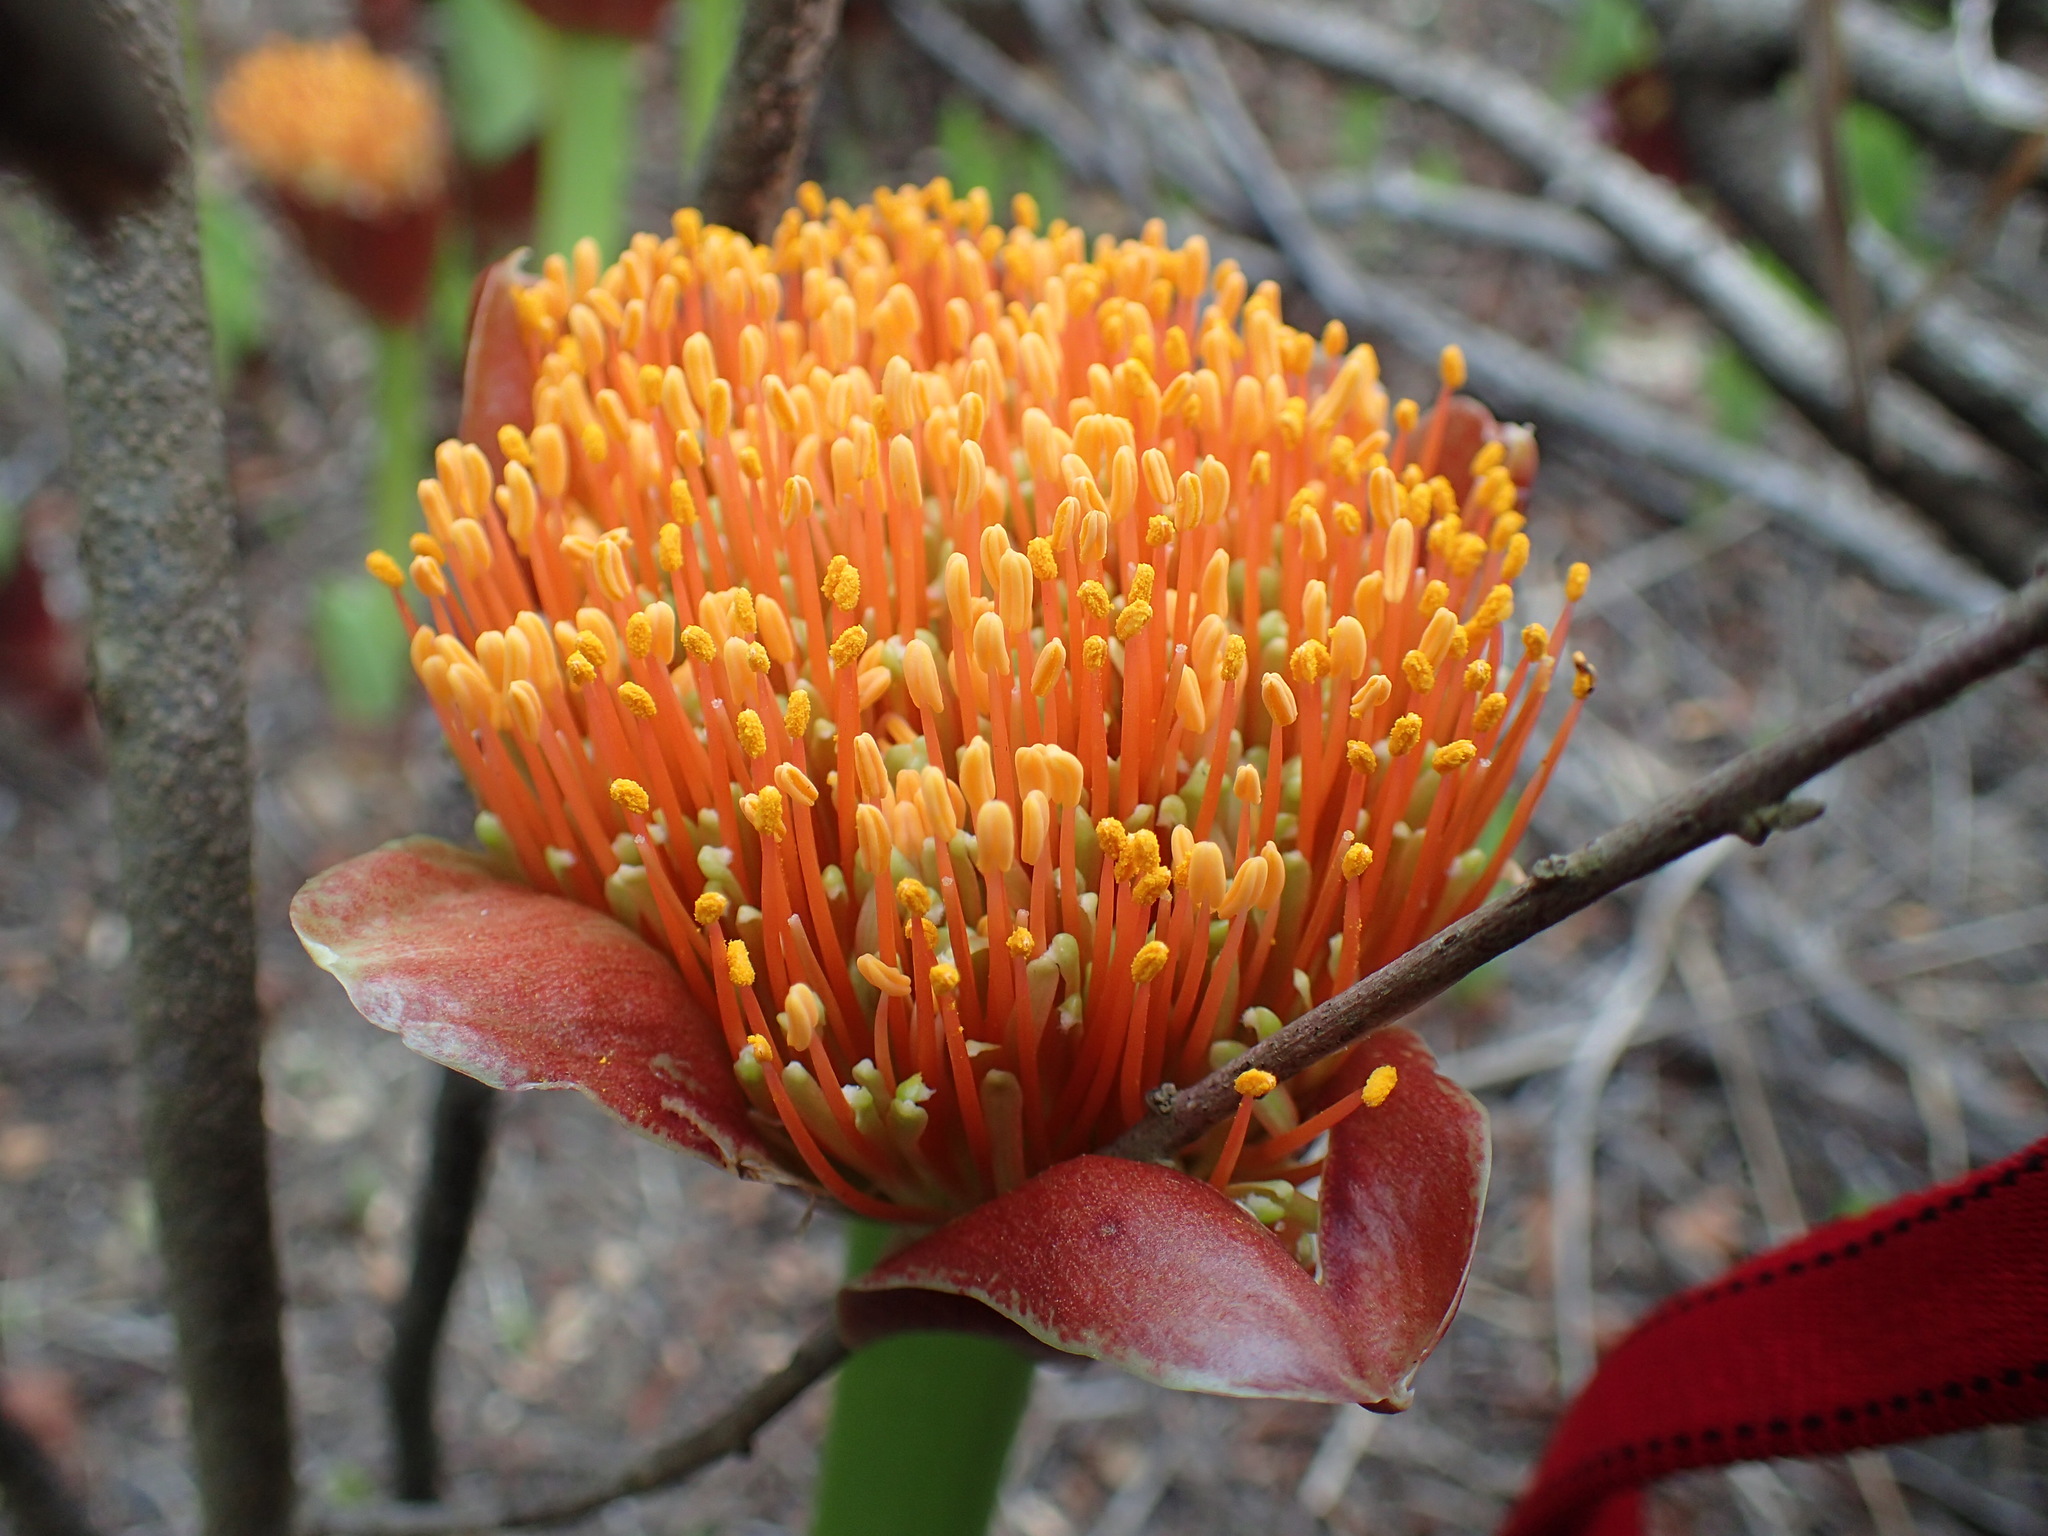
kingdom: Plantae
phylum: Tracheophyta
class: Liliopsida
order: Asparagales
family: Amaryllidaceae
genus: Scadoxus
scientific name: Scadoxus puniceus
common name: Royal-paintbrush
